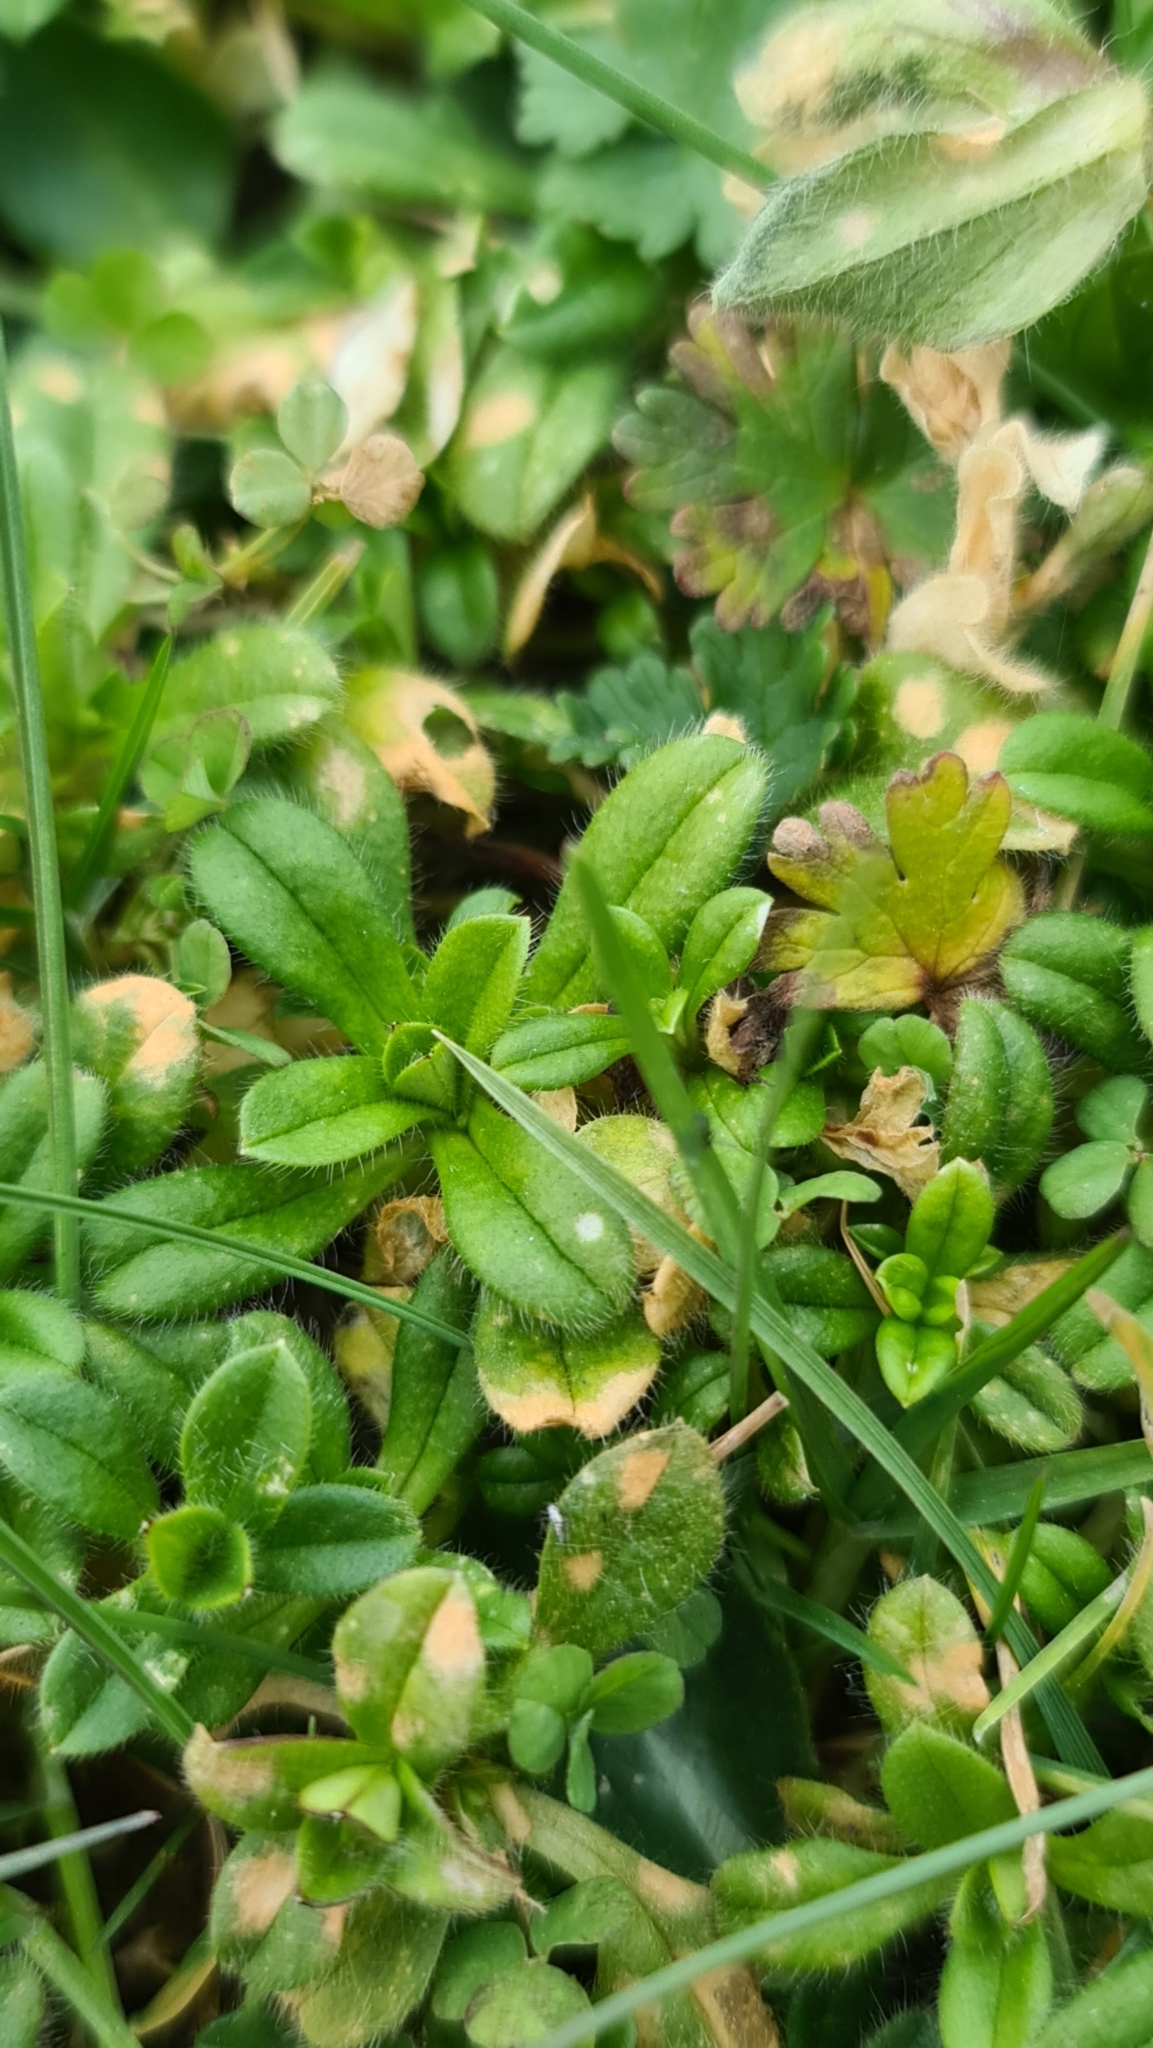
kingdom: Plantae
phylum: Tracheophyta
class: Magnoliopsida
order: Caryophyllales
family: Caryophyllaceae
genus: Cerastium
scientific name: Cerastium glomeratum
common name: Sticky chickweed
